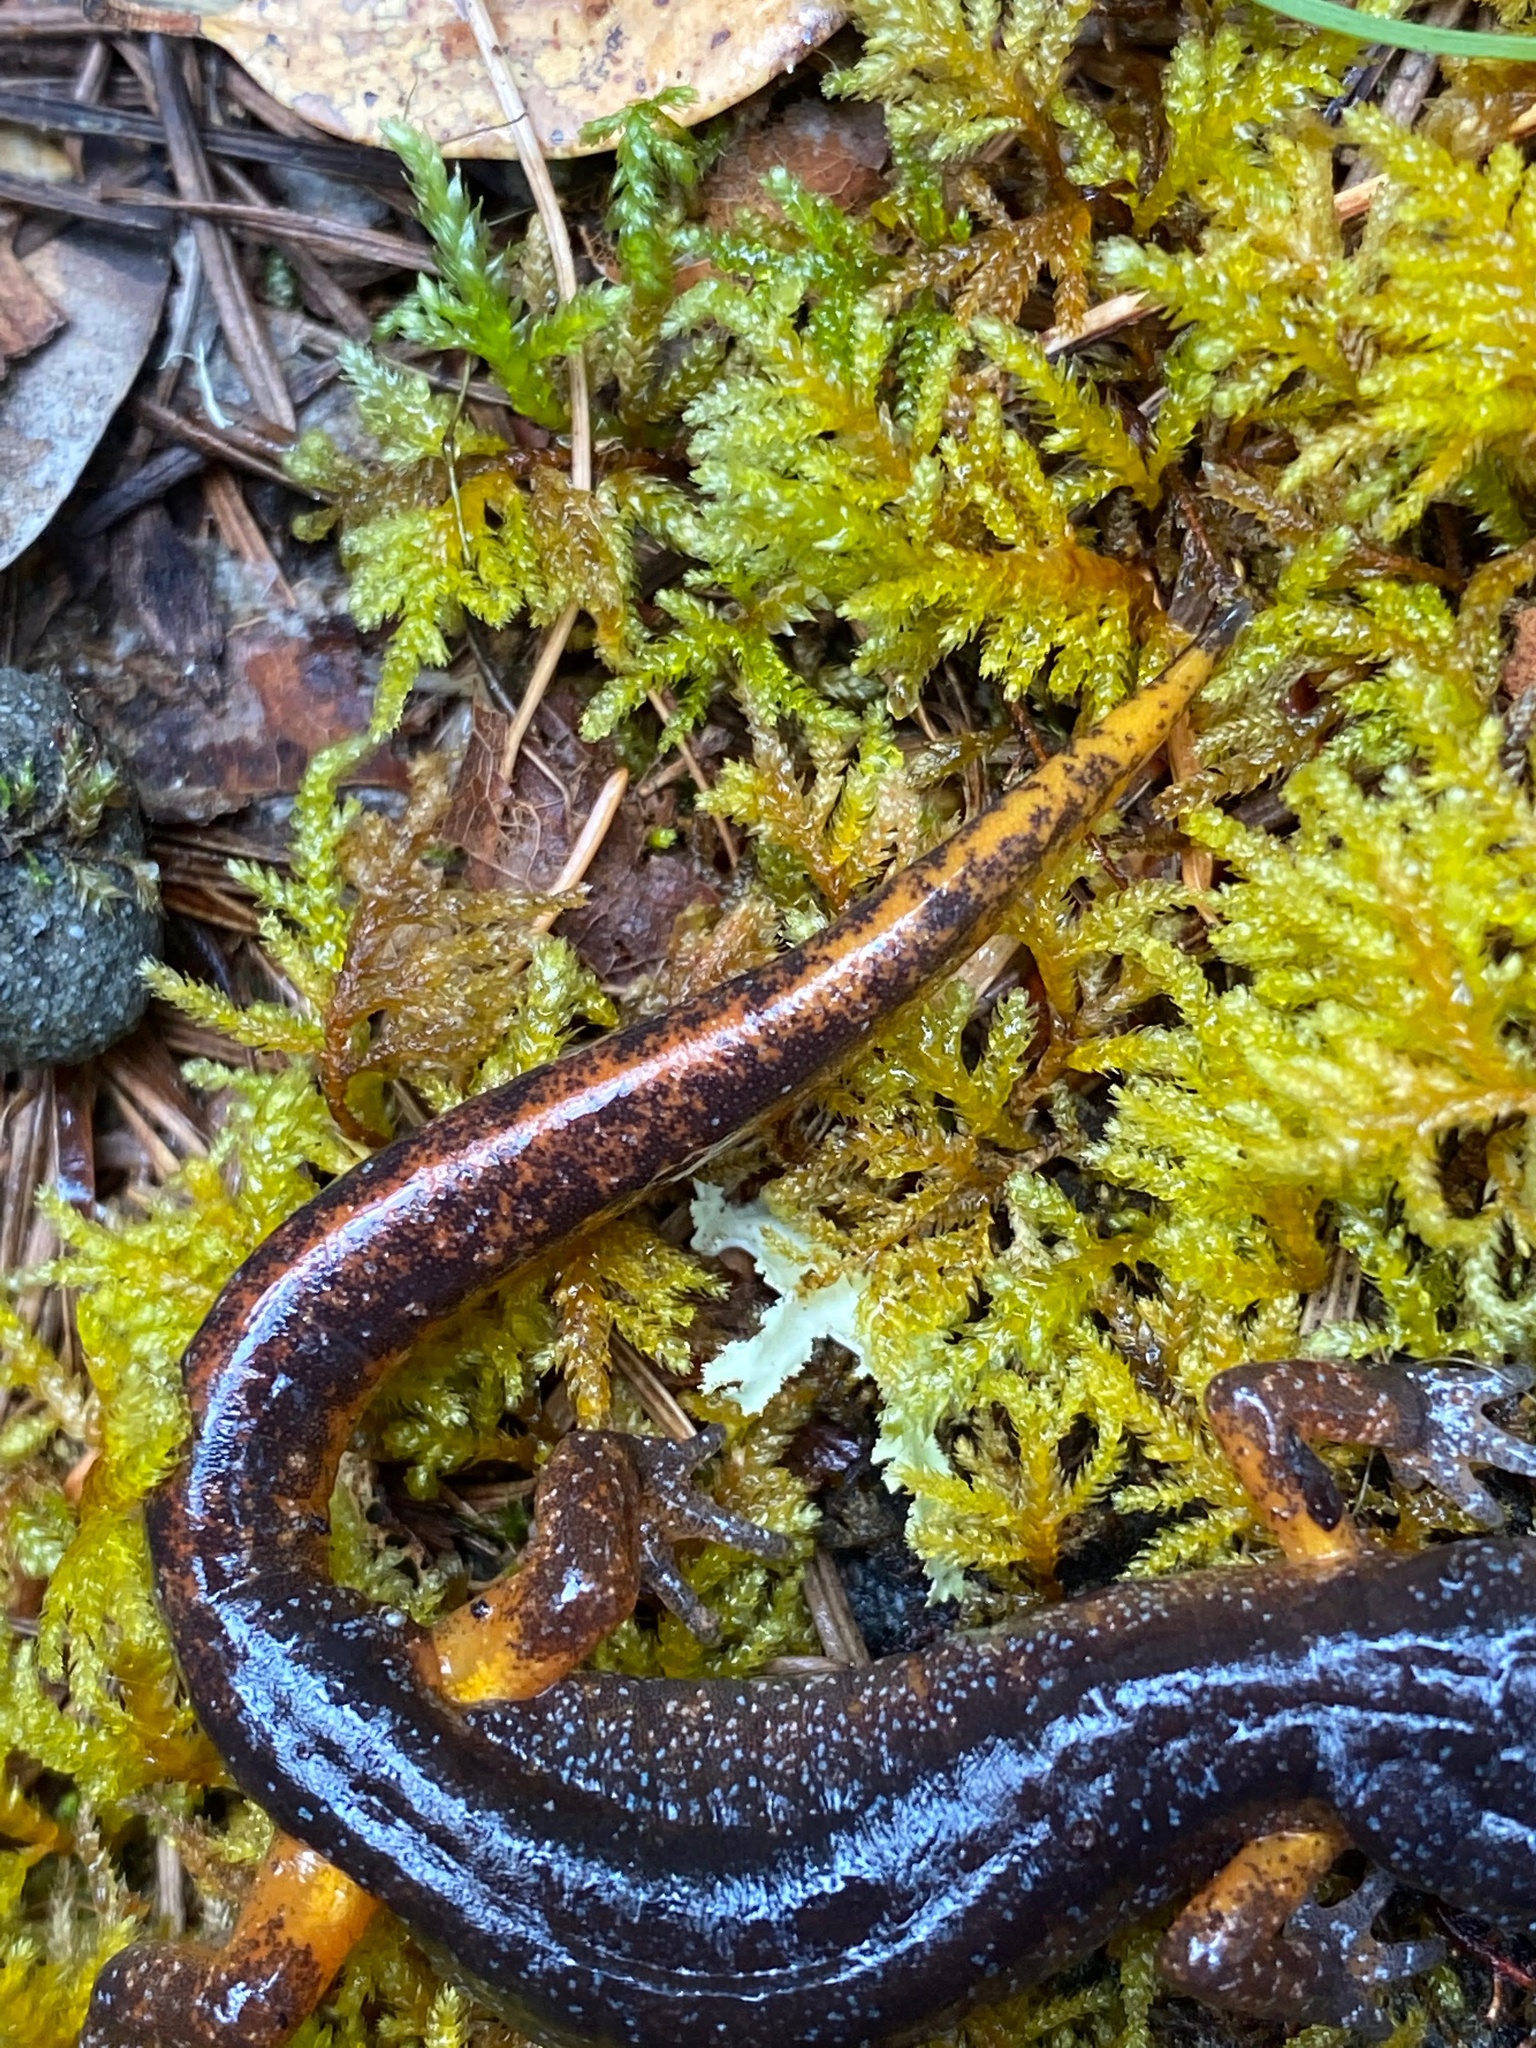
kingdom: Animalia
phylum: Chordata
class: Amphibia
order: Caudata
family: Plethodontidae
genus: Ensatina
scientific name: Ensatina eschscholtzii
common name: Ensatina
